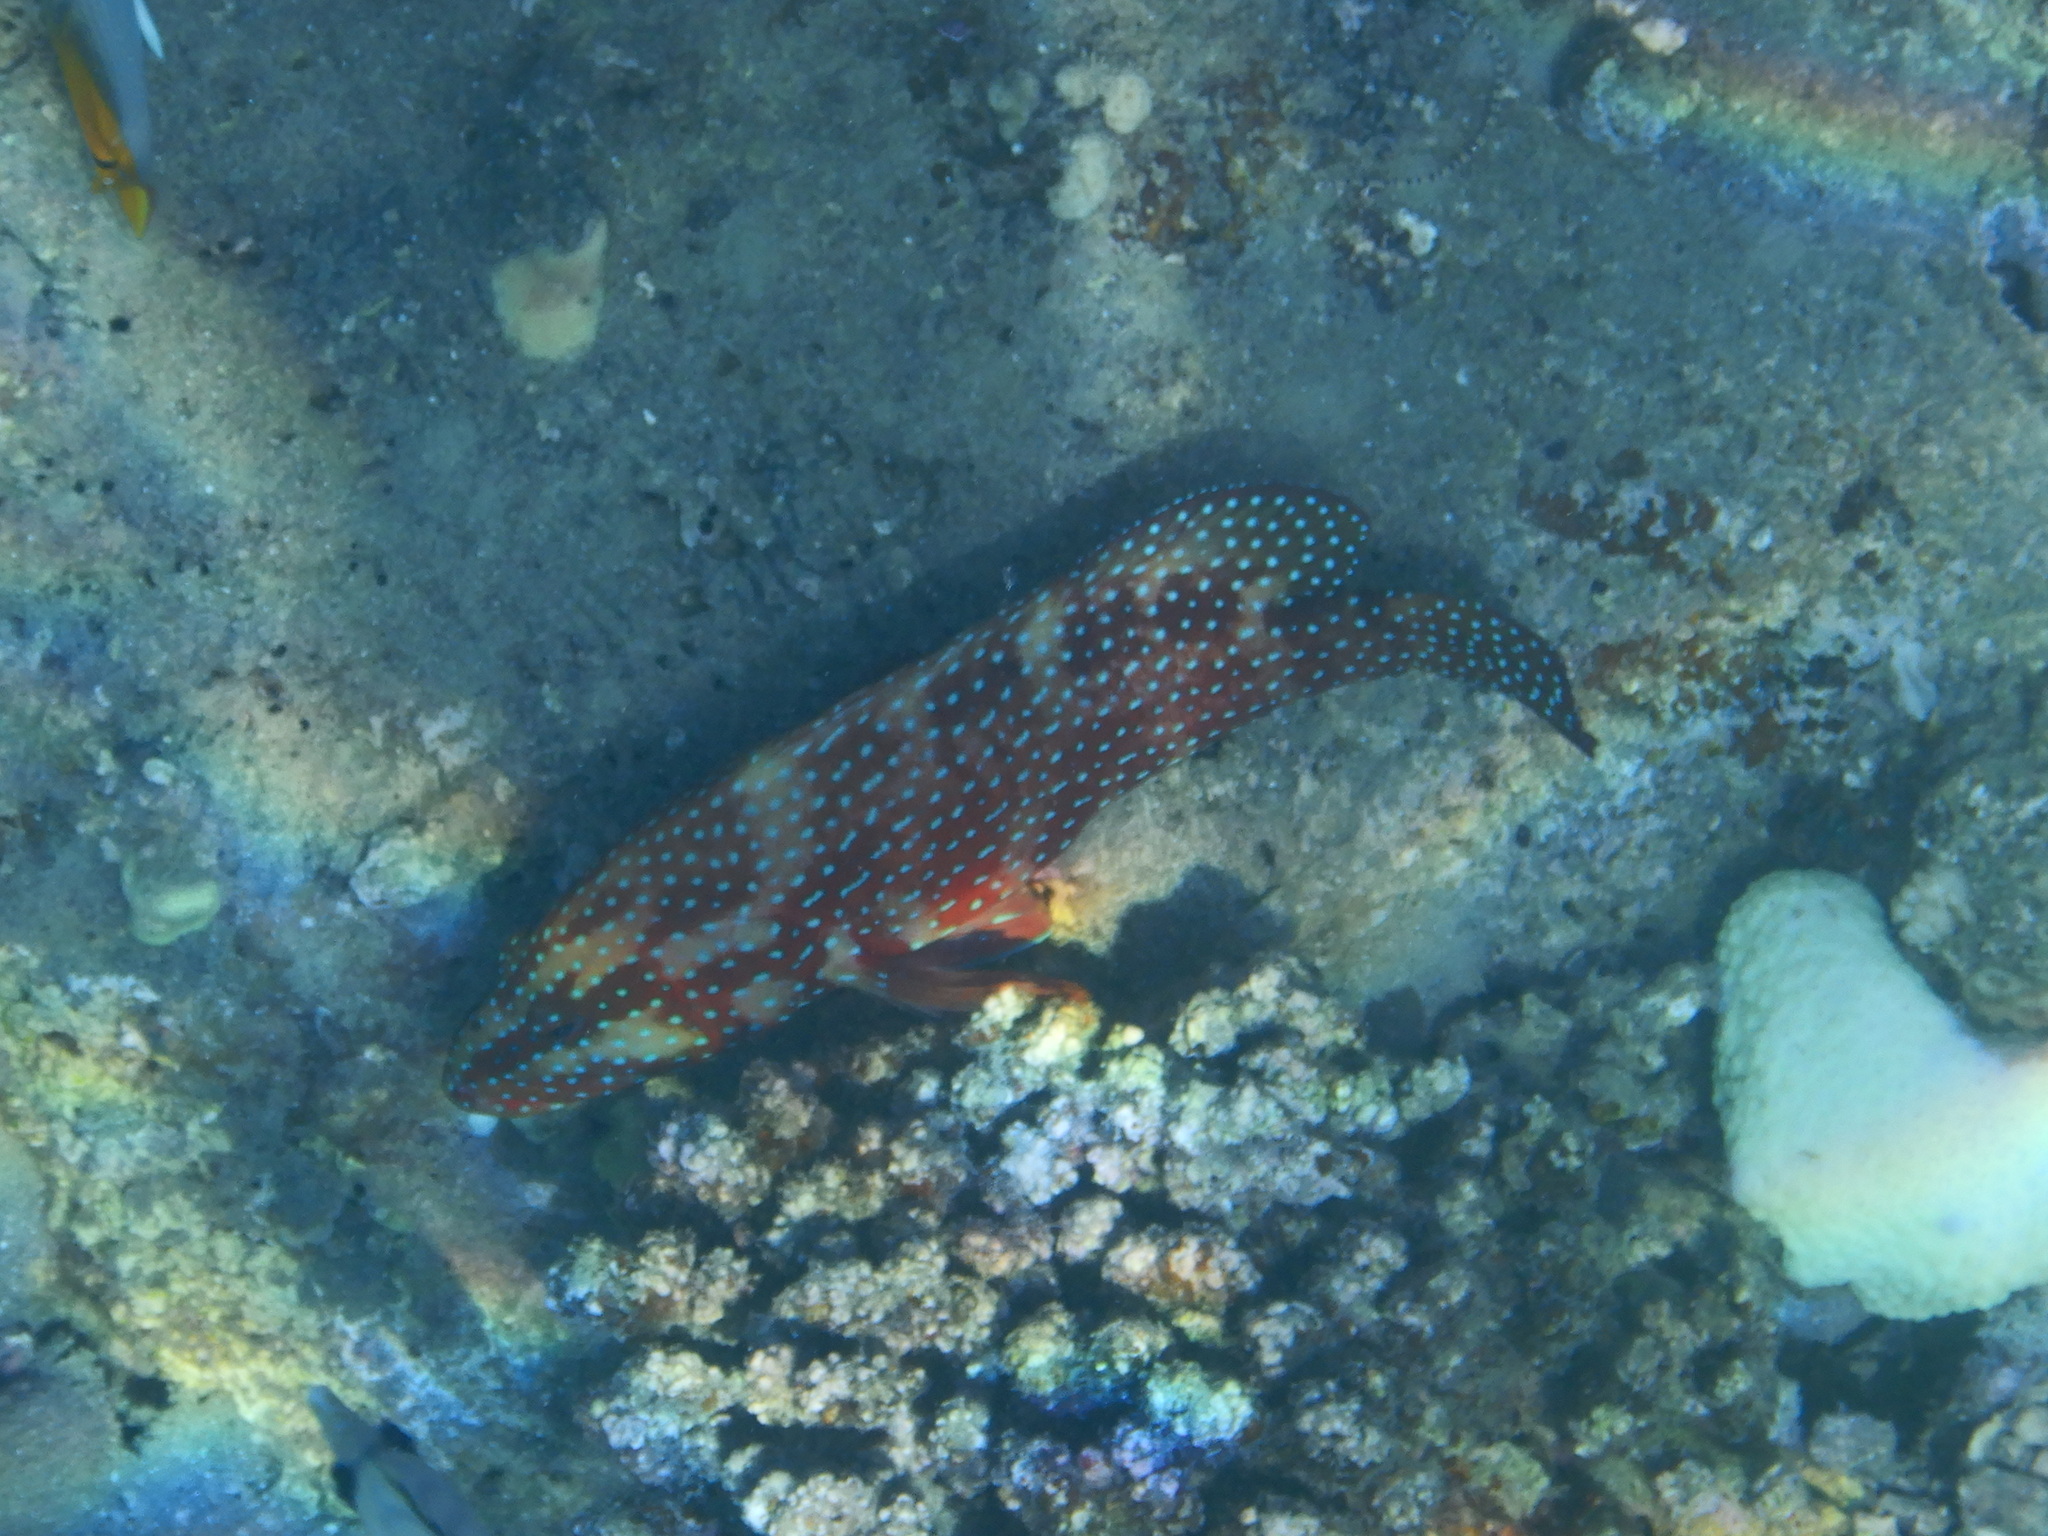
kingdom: Animalia
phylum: Chordata
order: Perciformes
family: Serranidae
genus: Cephalopholis
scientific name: Cephalopholis miniata
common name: Coral hind
